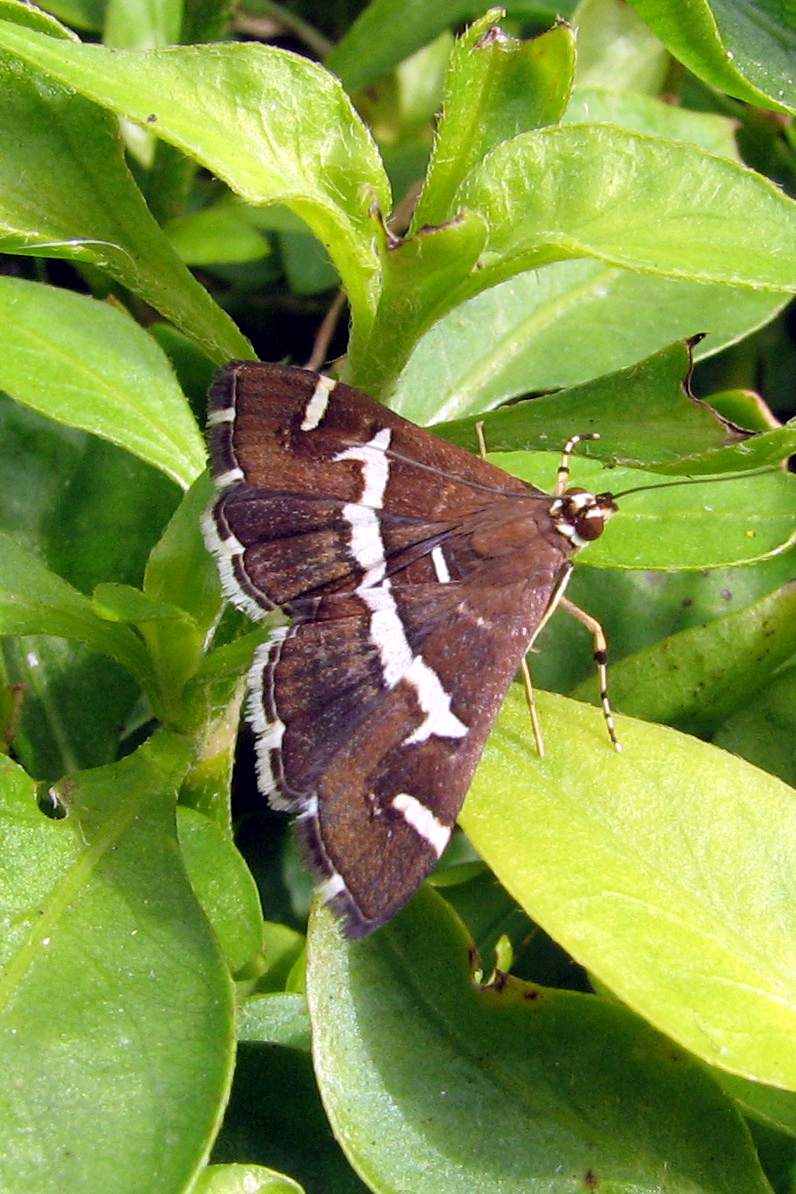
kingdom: Animalia
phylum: Arthropoda
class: Insecta
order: Lepidoptera
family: Crambidae
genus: Spoladea
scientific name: Spoladea recurvalis
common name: Beet webworm moth
